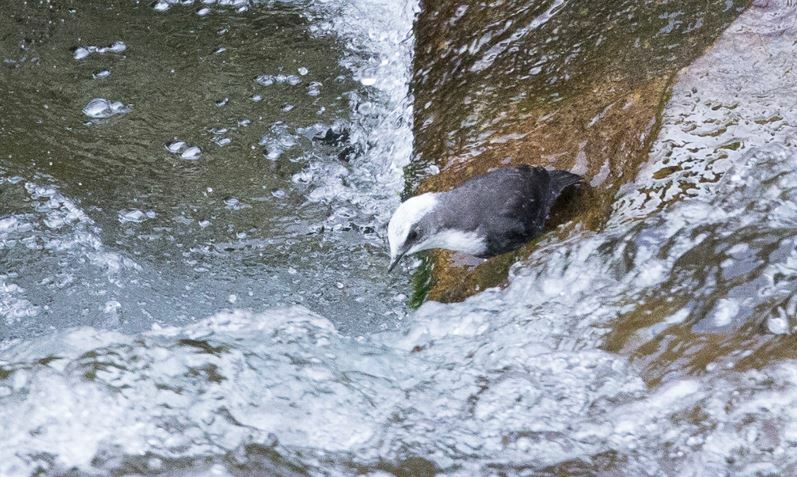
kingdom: Animalia
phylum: Chordata
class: Aves
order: Passeriformes
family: Cinclidae
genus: Cinclus
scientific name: Cinclus leucocephalus
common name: White-capped dipper
